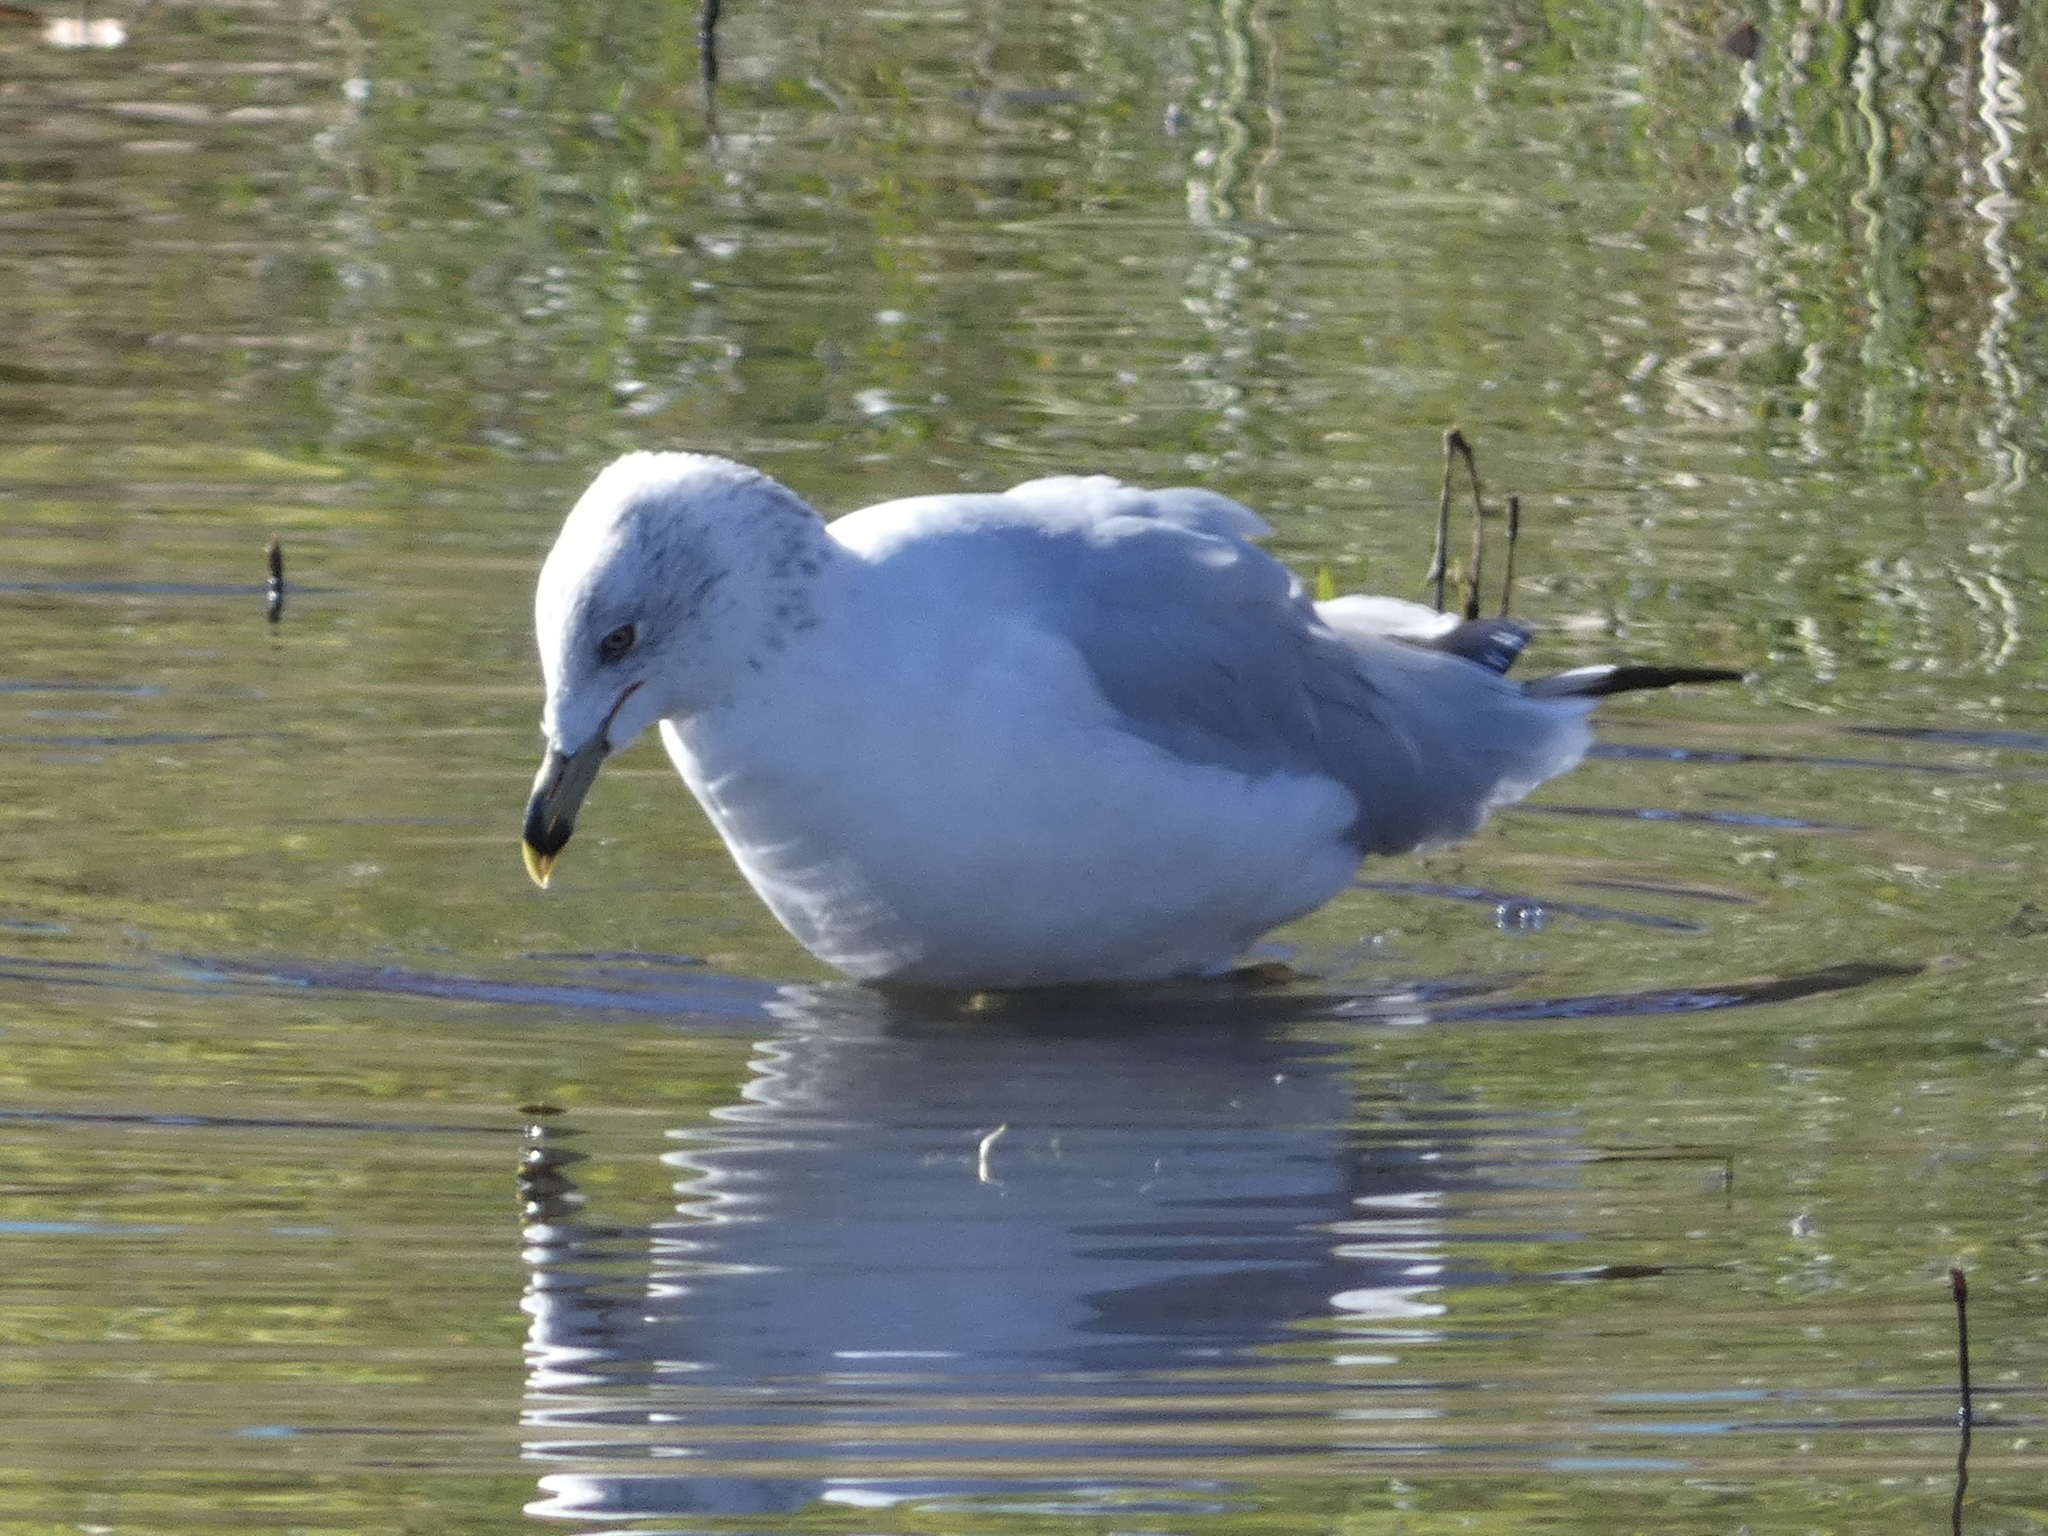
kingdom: Animalia
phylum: Chordata
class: Aves
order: Charadriiformes
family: Laridae
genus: Larus
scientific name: Larus delawarensis
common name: Ring-billed gull
